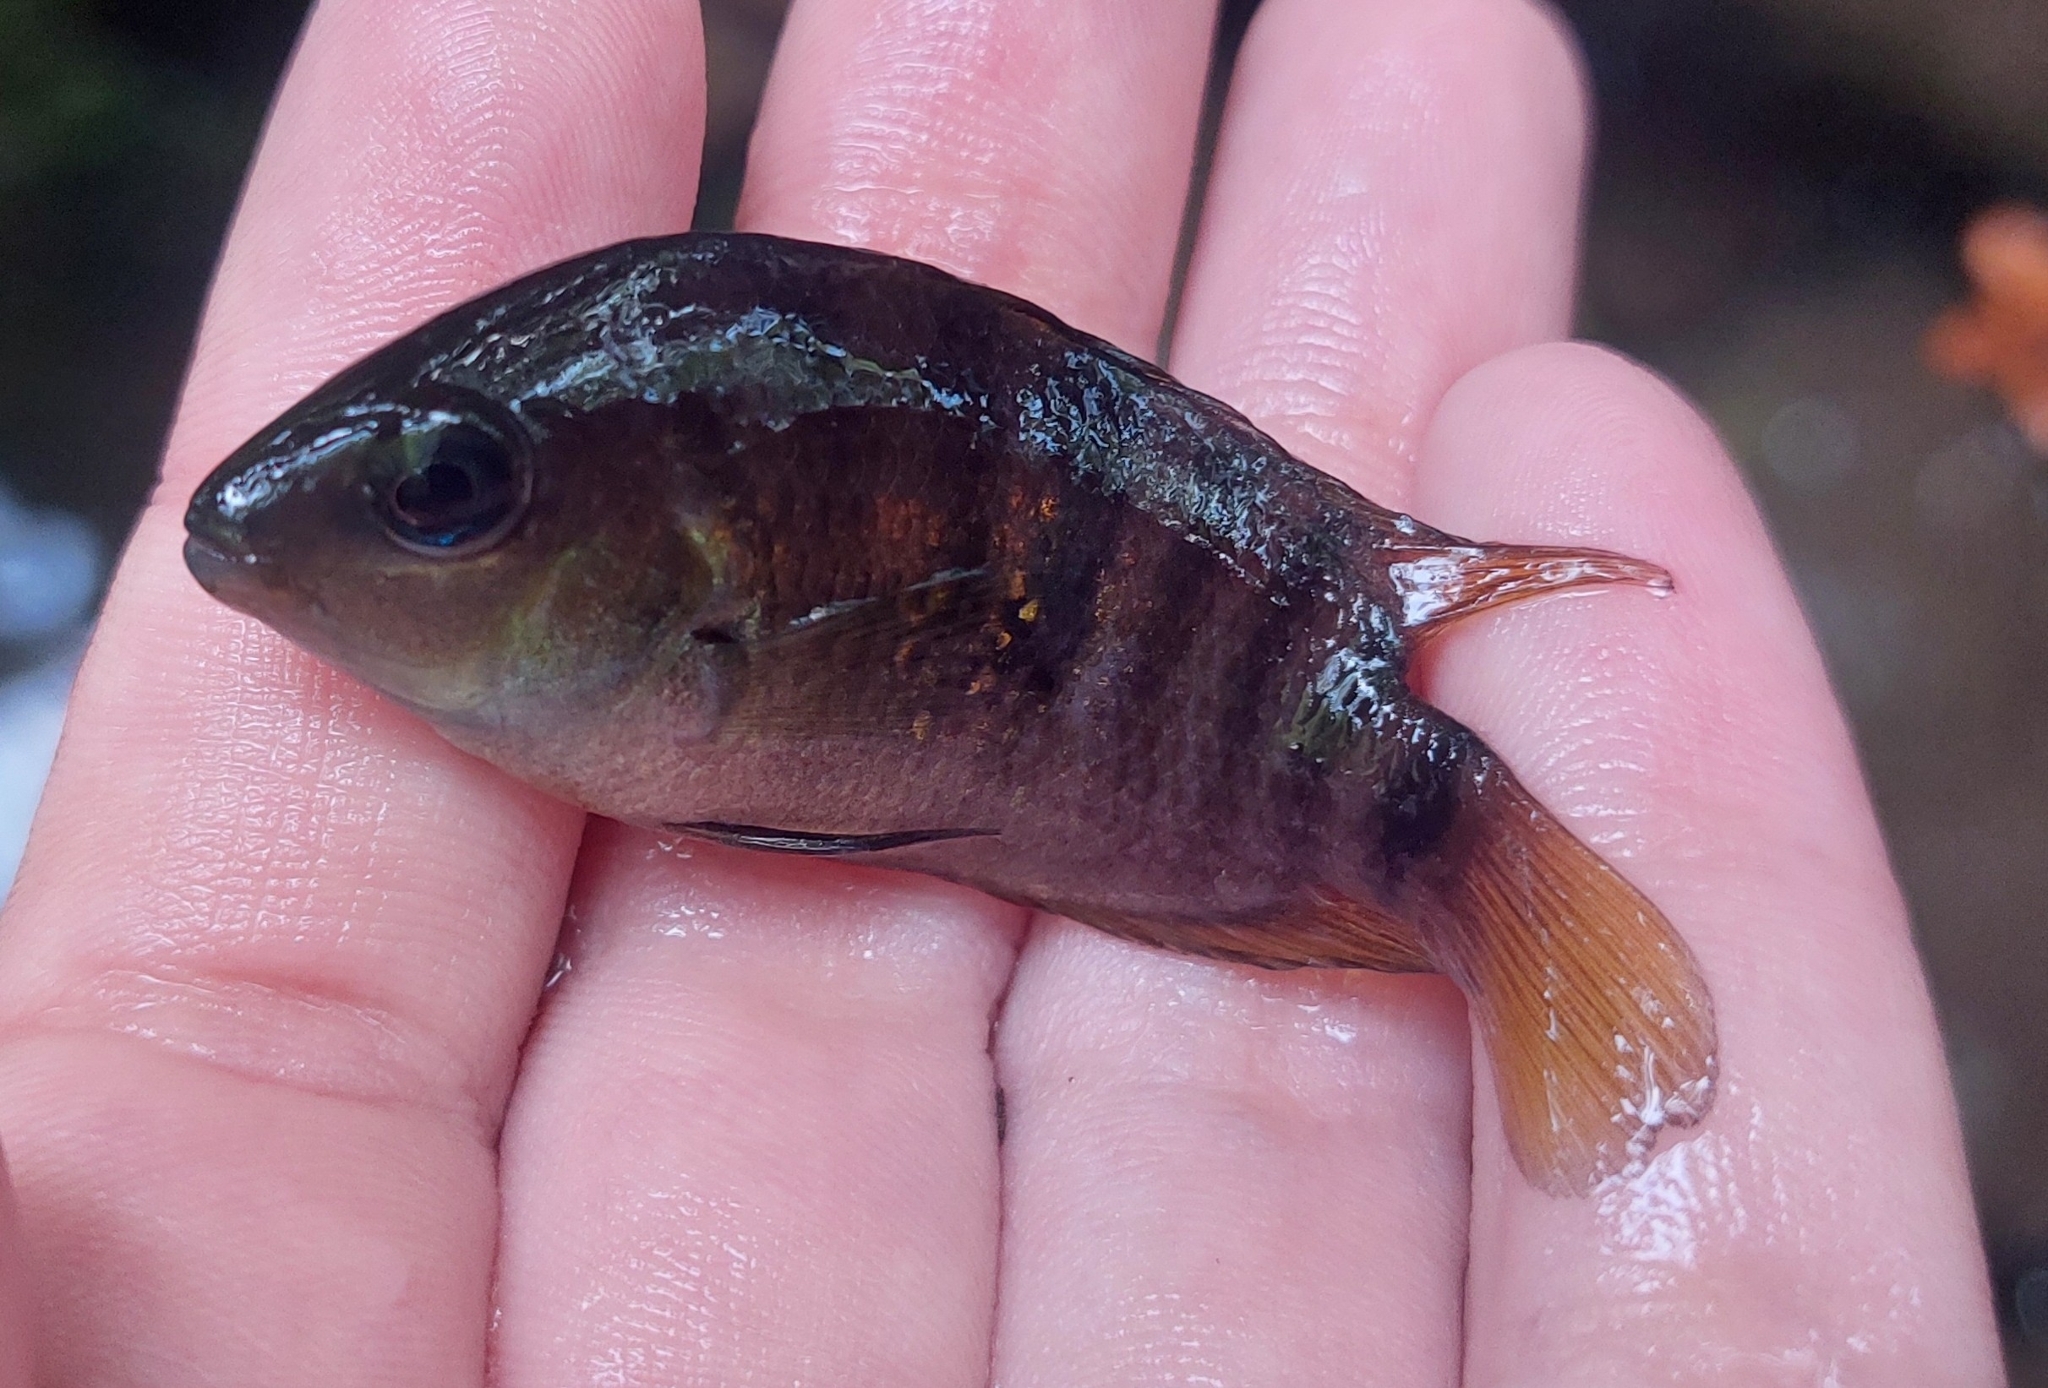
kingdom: Animalia
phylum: Chordata
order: Perciformes
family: Cichlidae
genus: Amatitlania
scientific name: Amatitlania septemfasciata
